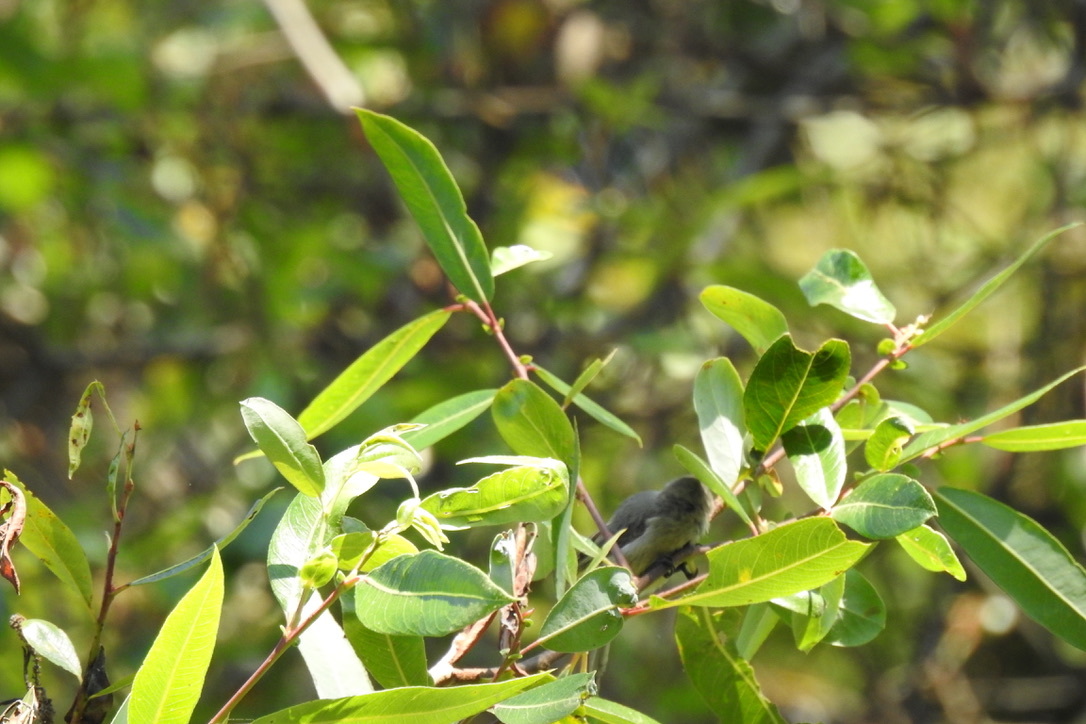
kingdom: Animalia
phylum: Chordata
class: Aves
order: Passeriformes
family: Aegithalidae
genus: Psaltriparus
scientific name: Psaltriparus minimus
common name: American bushtit
